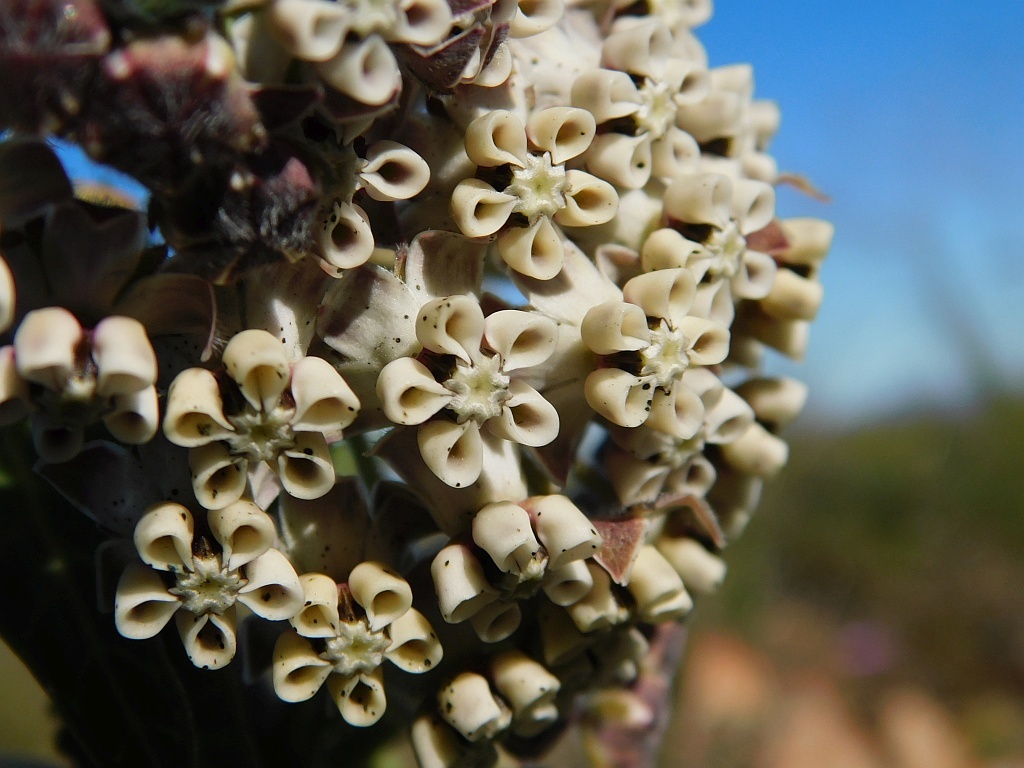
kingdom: Plantae
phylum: Tracheophyta
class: Magnoliopsida
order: Gentianales
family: Apocynaceae
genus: Gomphocarpus
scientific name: Gomphocarpus cancellatus
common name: Wild cotton
